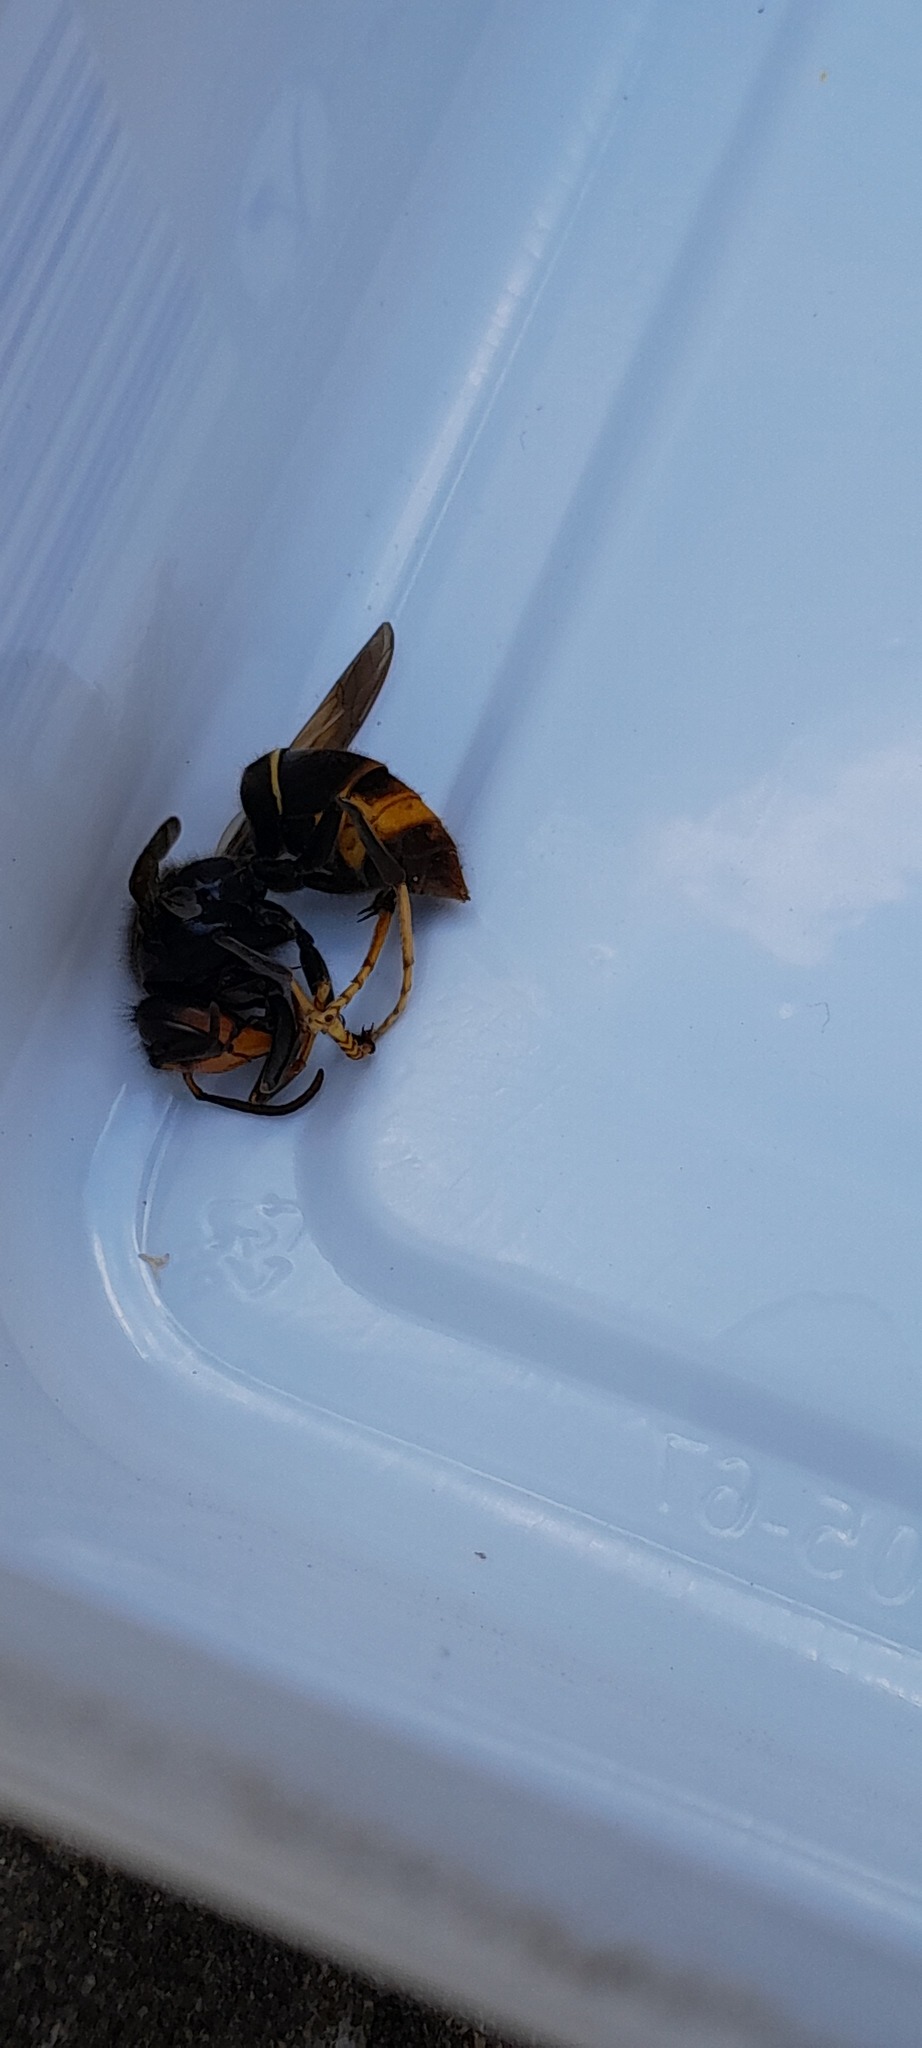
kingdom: Animalia
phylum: Arthropoda
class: Insecta
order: Hymenoptera
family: Vespidae
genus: Vespa
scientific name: Vespa velutina
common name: Asian hornet
